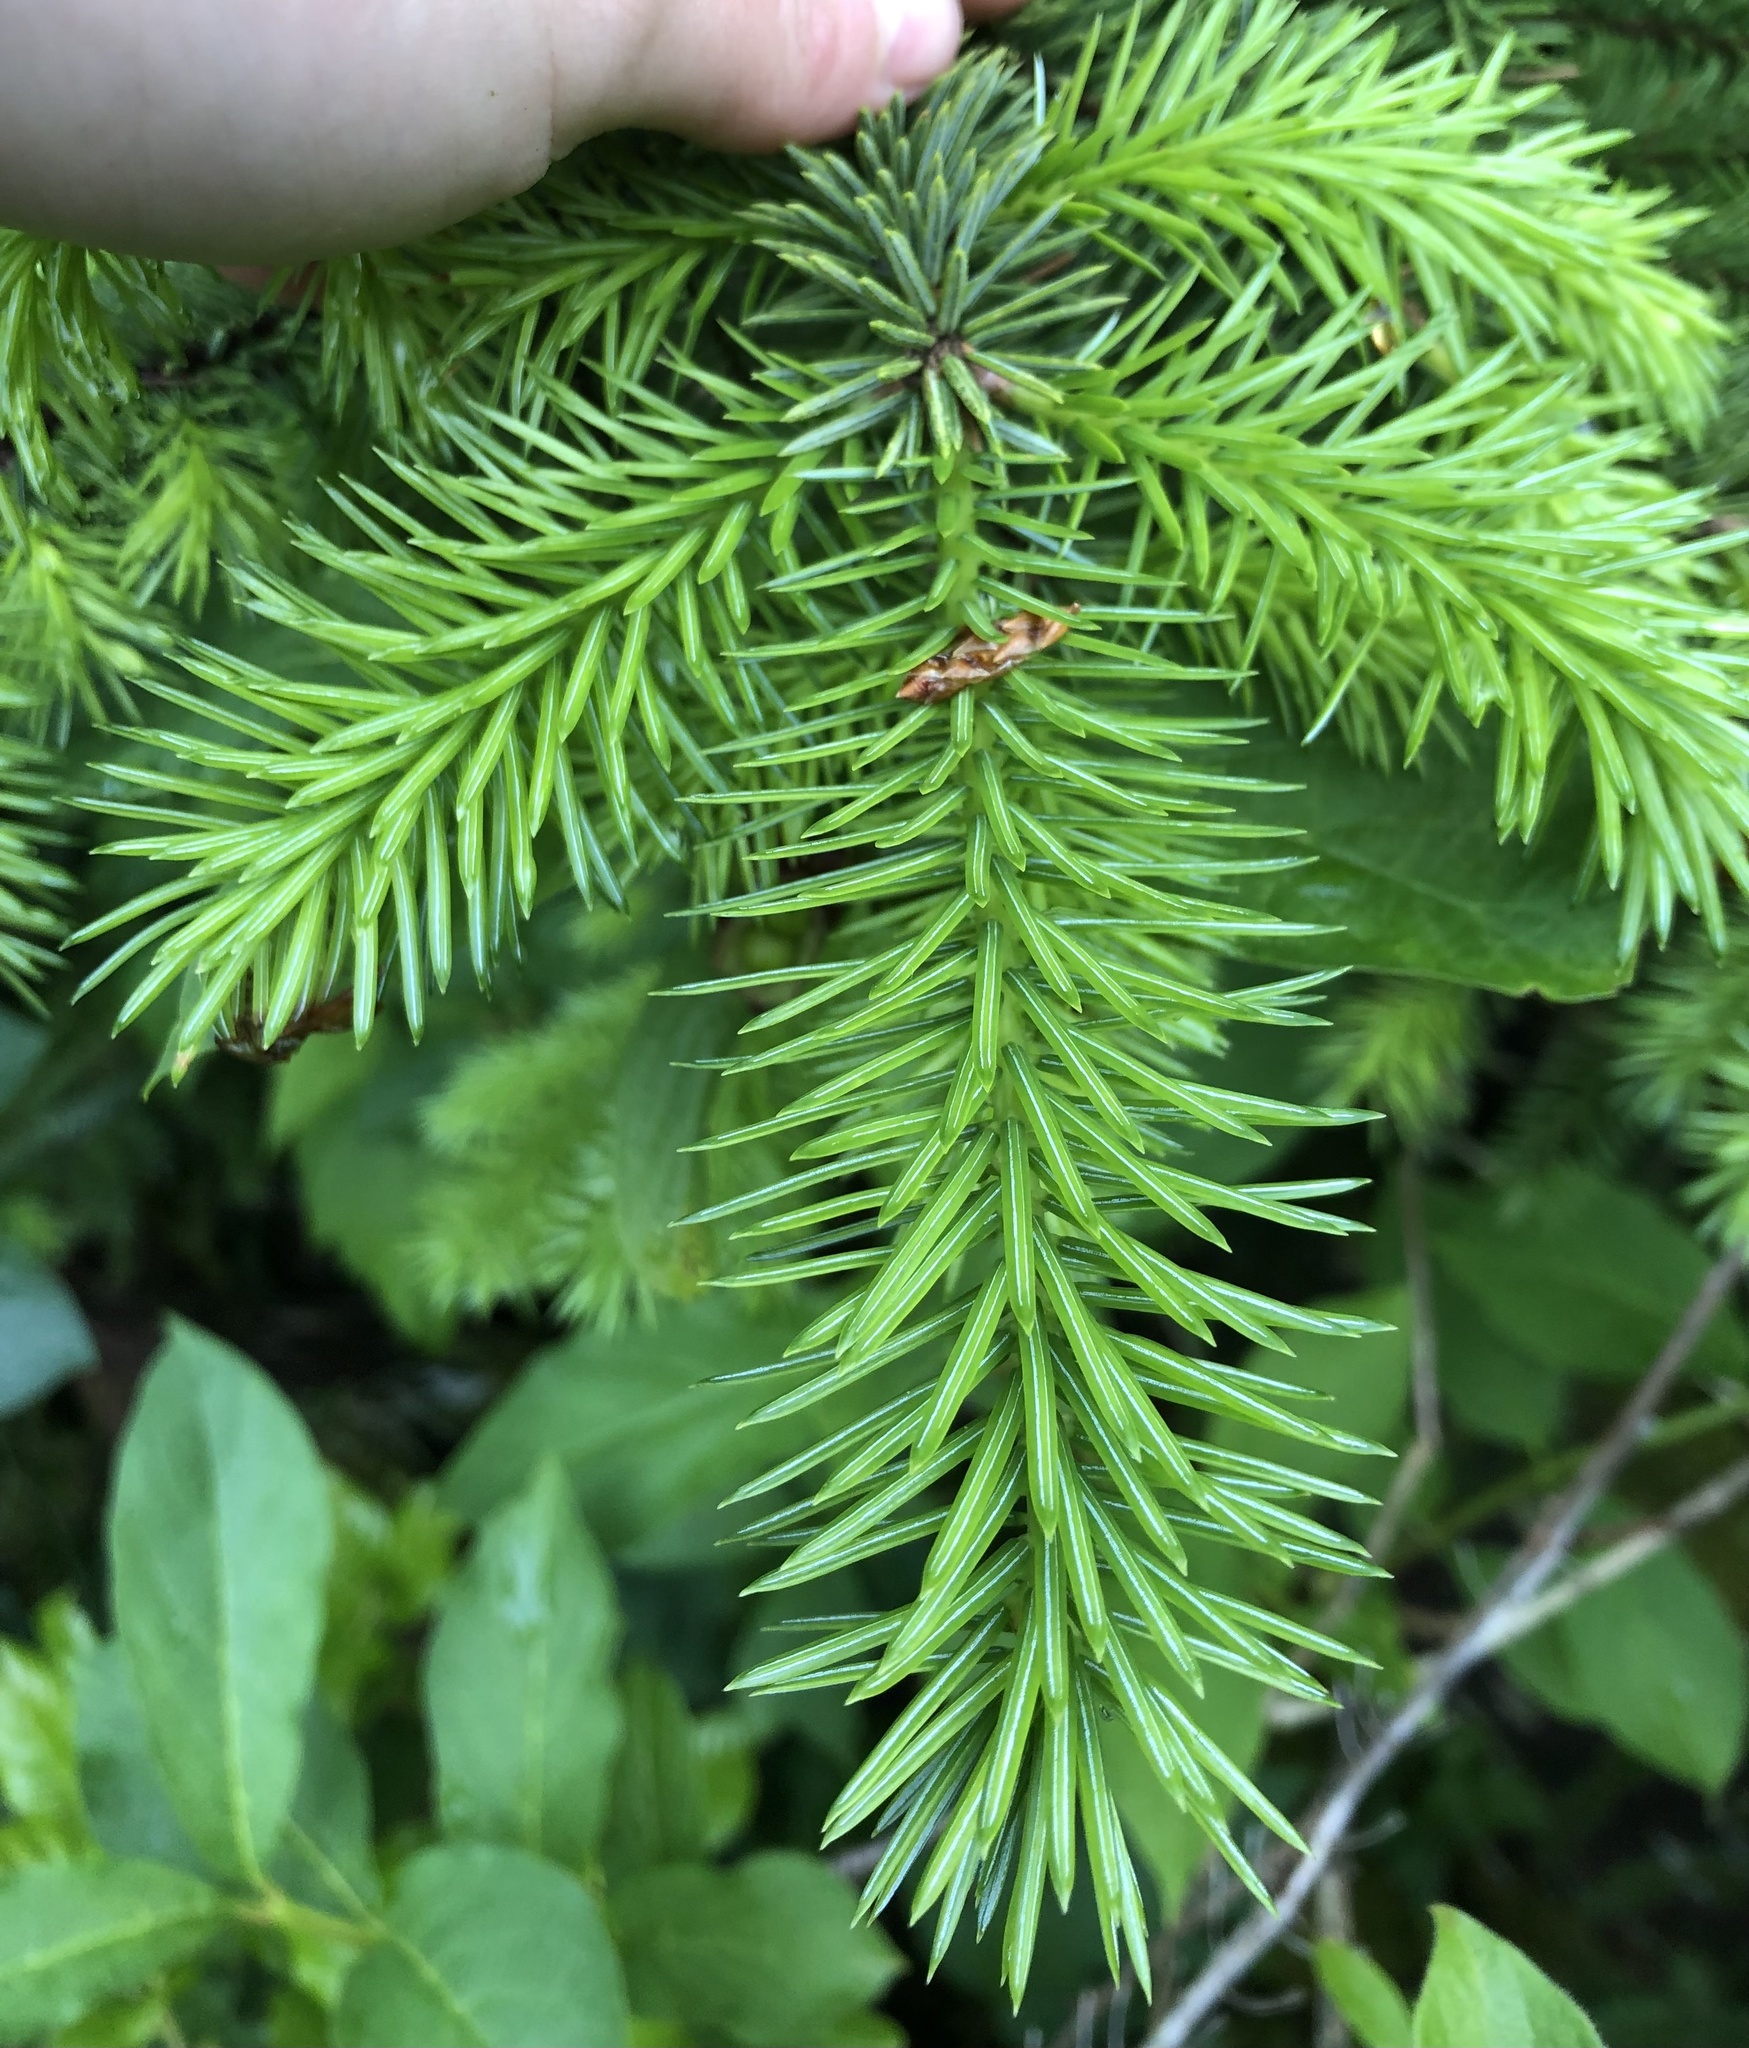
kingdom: Plantae
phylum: Tracheophyta
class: Pinopsida
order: Pinales
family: Pinaceae
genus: Picea
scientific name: Picea sitchensis
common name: Sitka spruce
